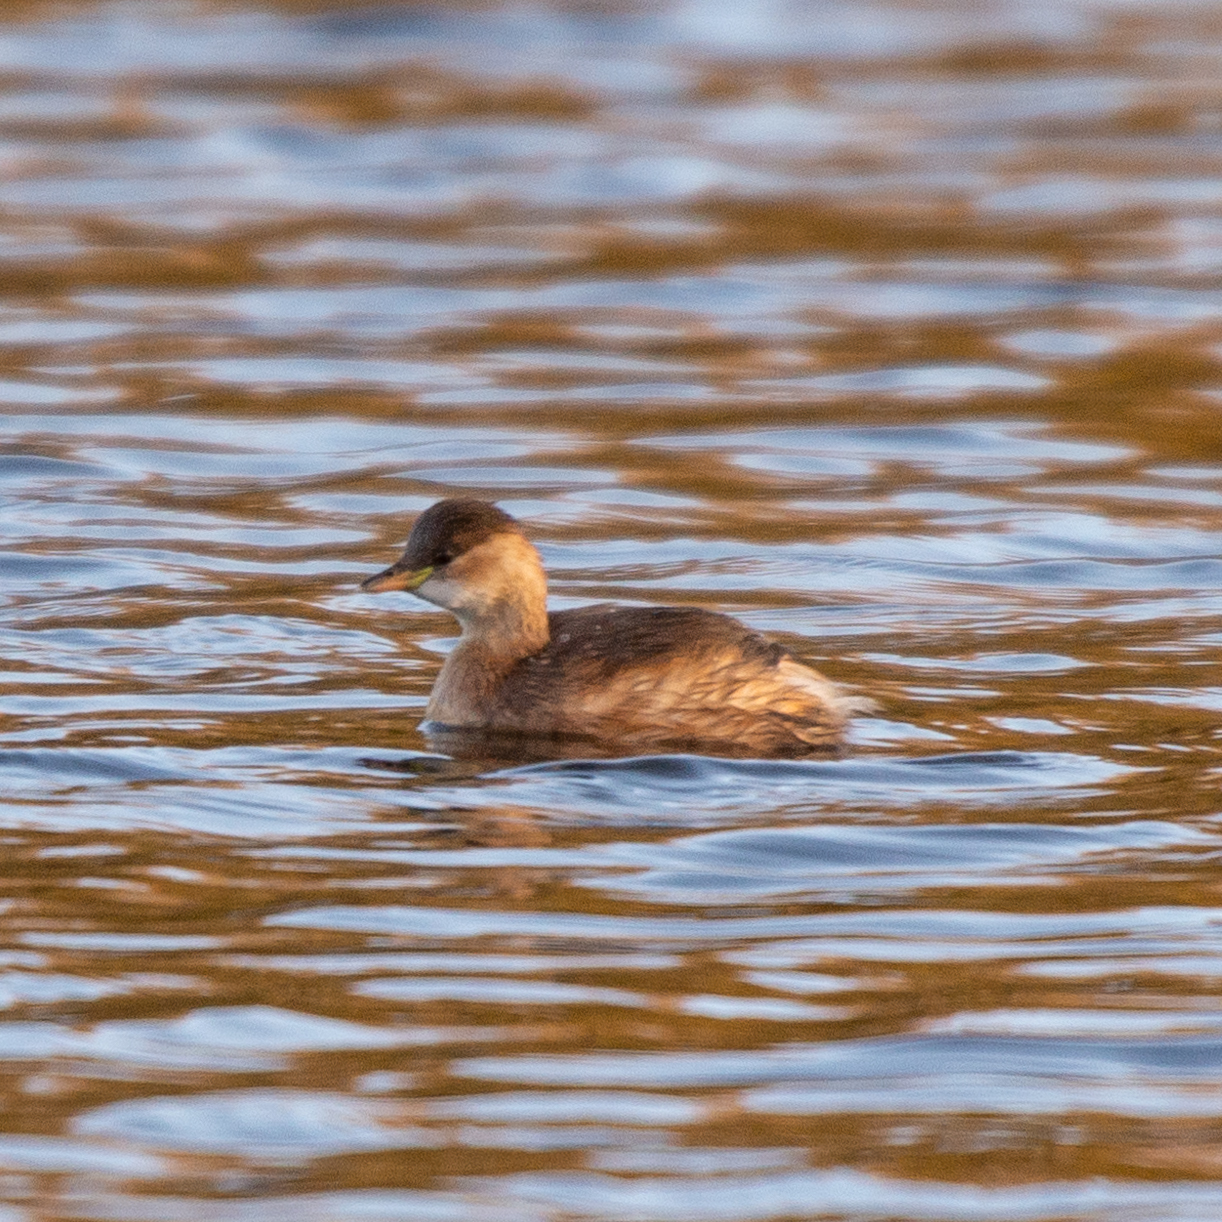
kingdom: Animalia
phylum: Chordata
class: Aves
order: Podicipediformes
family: Podicipedidae
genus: Tachybaptus
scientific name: Tachybaptus ruficollis
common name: Little grebe
